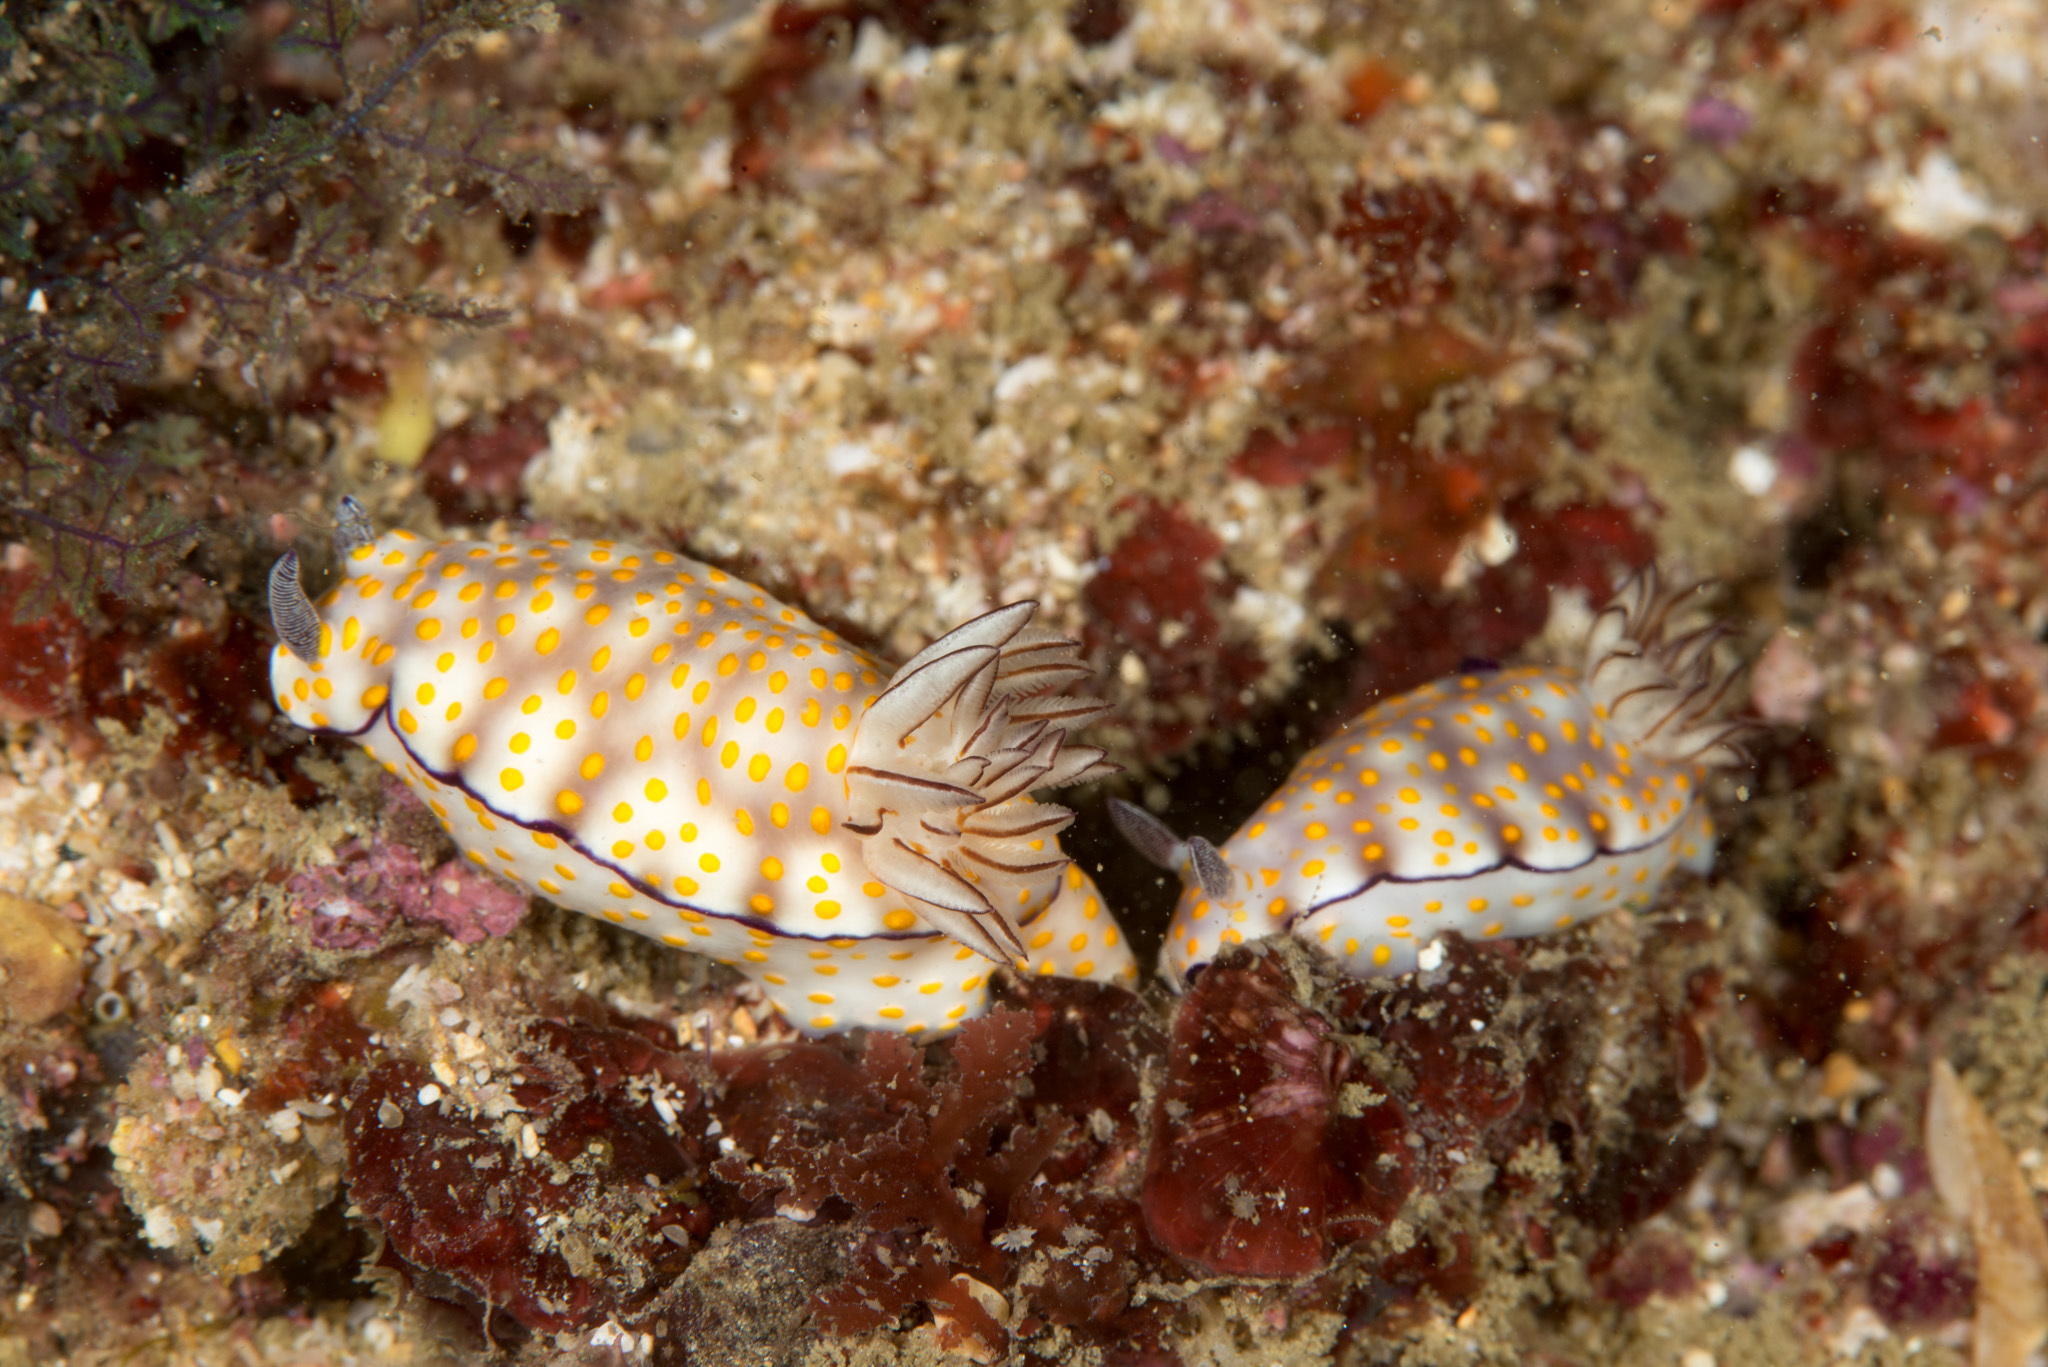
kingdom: Animalia
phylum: Mollusca
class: Gastropoda
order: Nudibranchia
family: Chromodorididae
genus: Hypselodoris
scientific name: Hypselodoris pulchella
